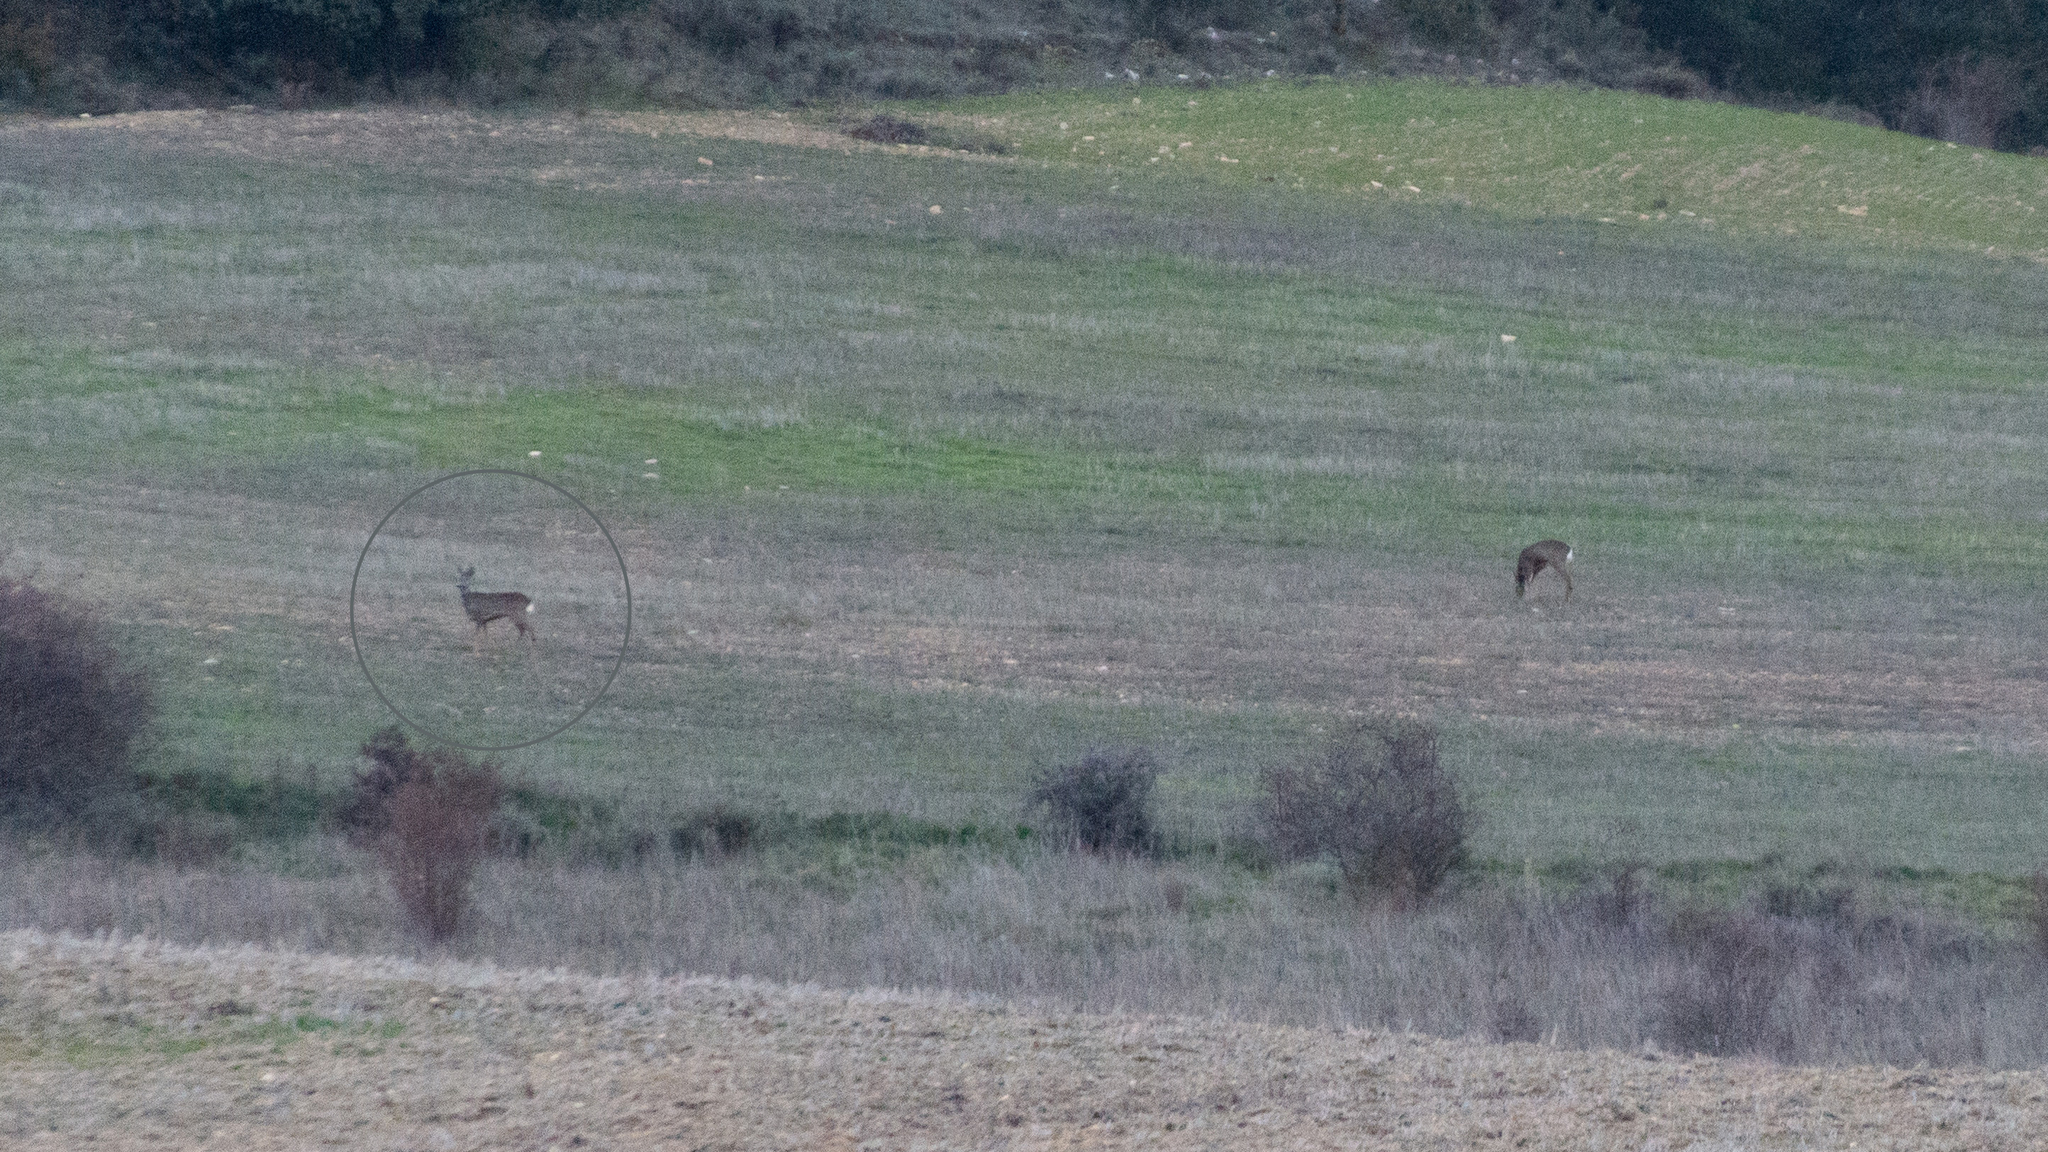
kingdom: Animalia
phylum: Chordata
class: Mammalia
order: Artiodactyla
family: Cervidae
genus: Capreolus
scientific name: Capreolus capreolus
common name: Western roe deer
